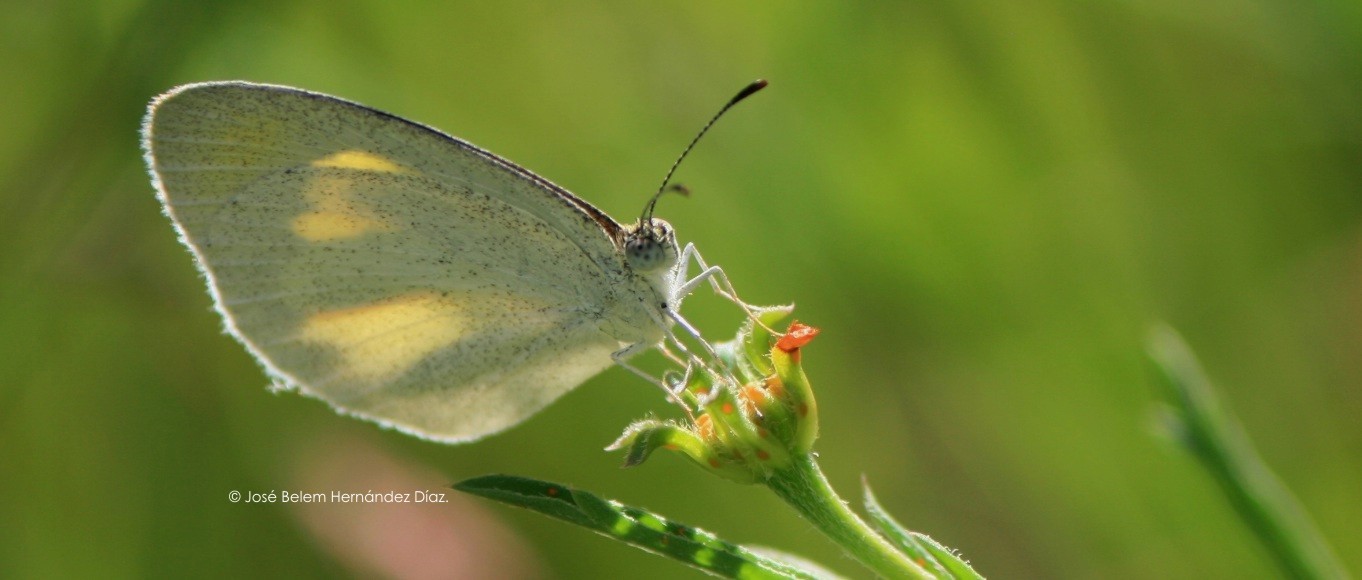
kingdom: Animalia
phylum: Arthropoda
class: Insecta
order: Lepidoptera
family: Pieridae
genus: Eurema
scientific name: Eurema daira
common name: Barred sulphur
